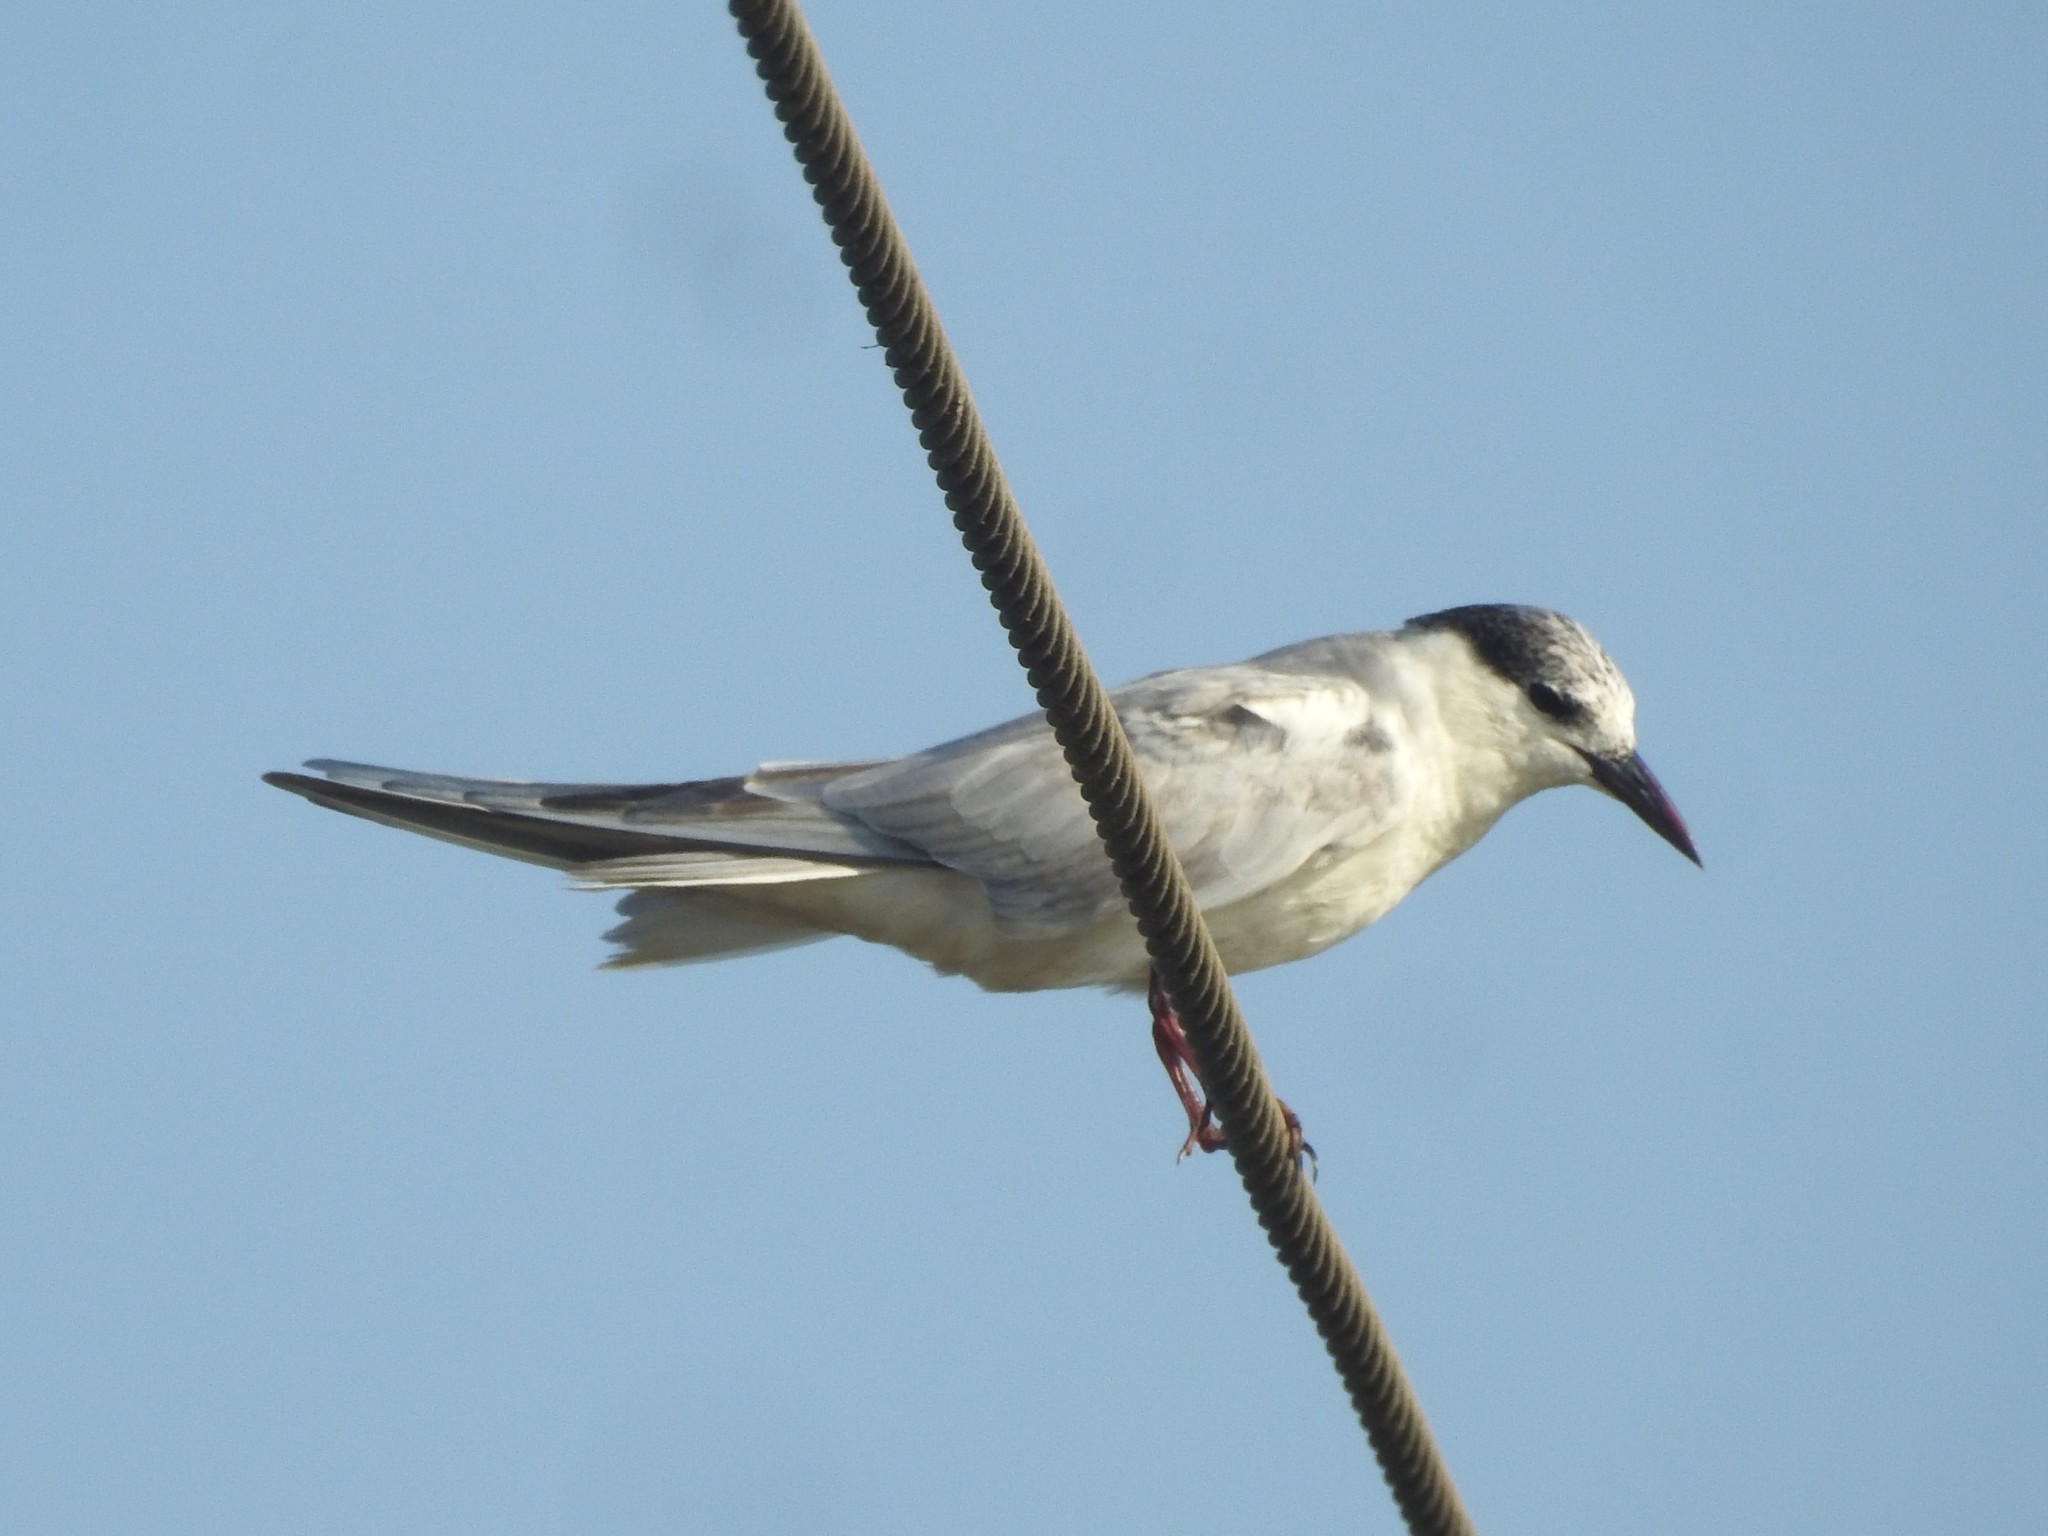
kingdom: Animalia
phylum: Chordata
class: Aves
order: Charadriiformes
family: Laridae
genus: Chlidonias
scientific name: Chlidonias hybrida
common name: Whiskered tern
